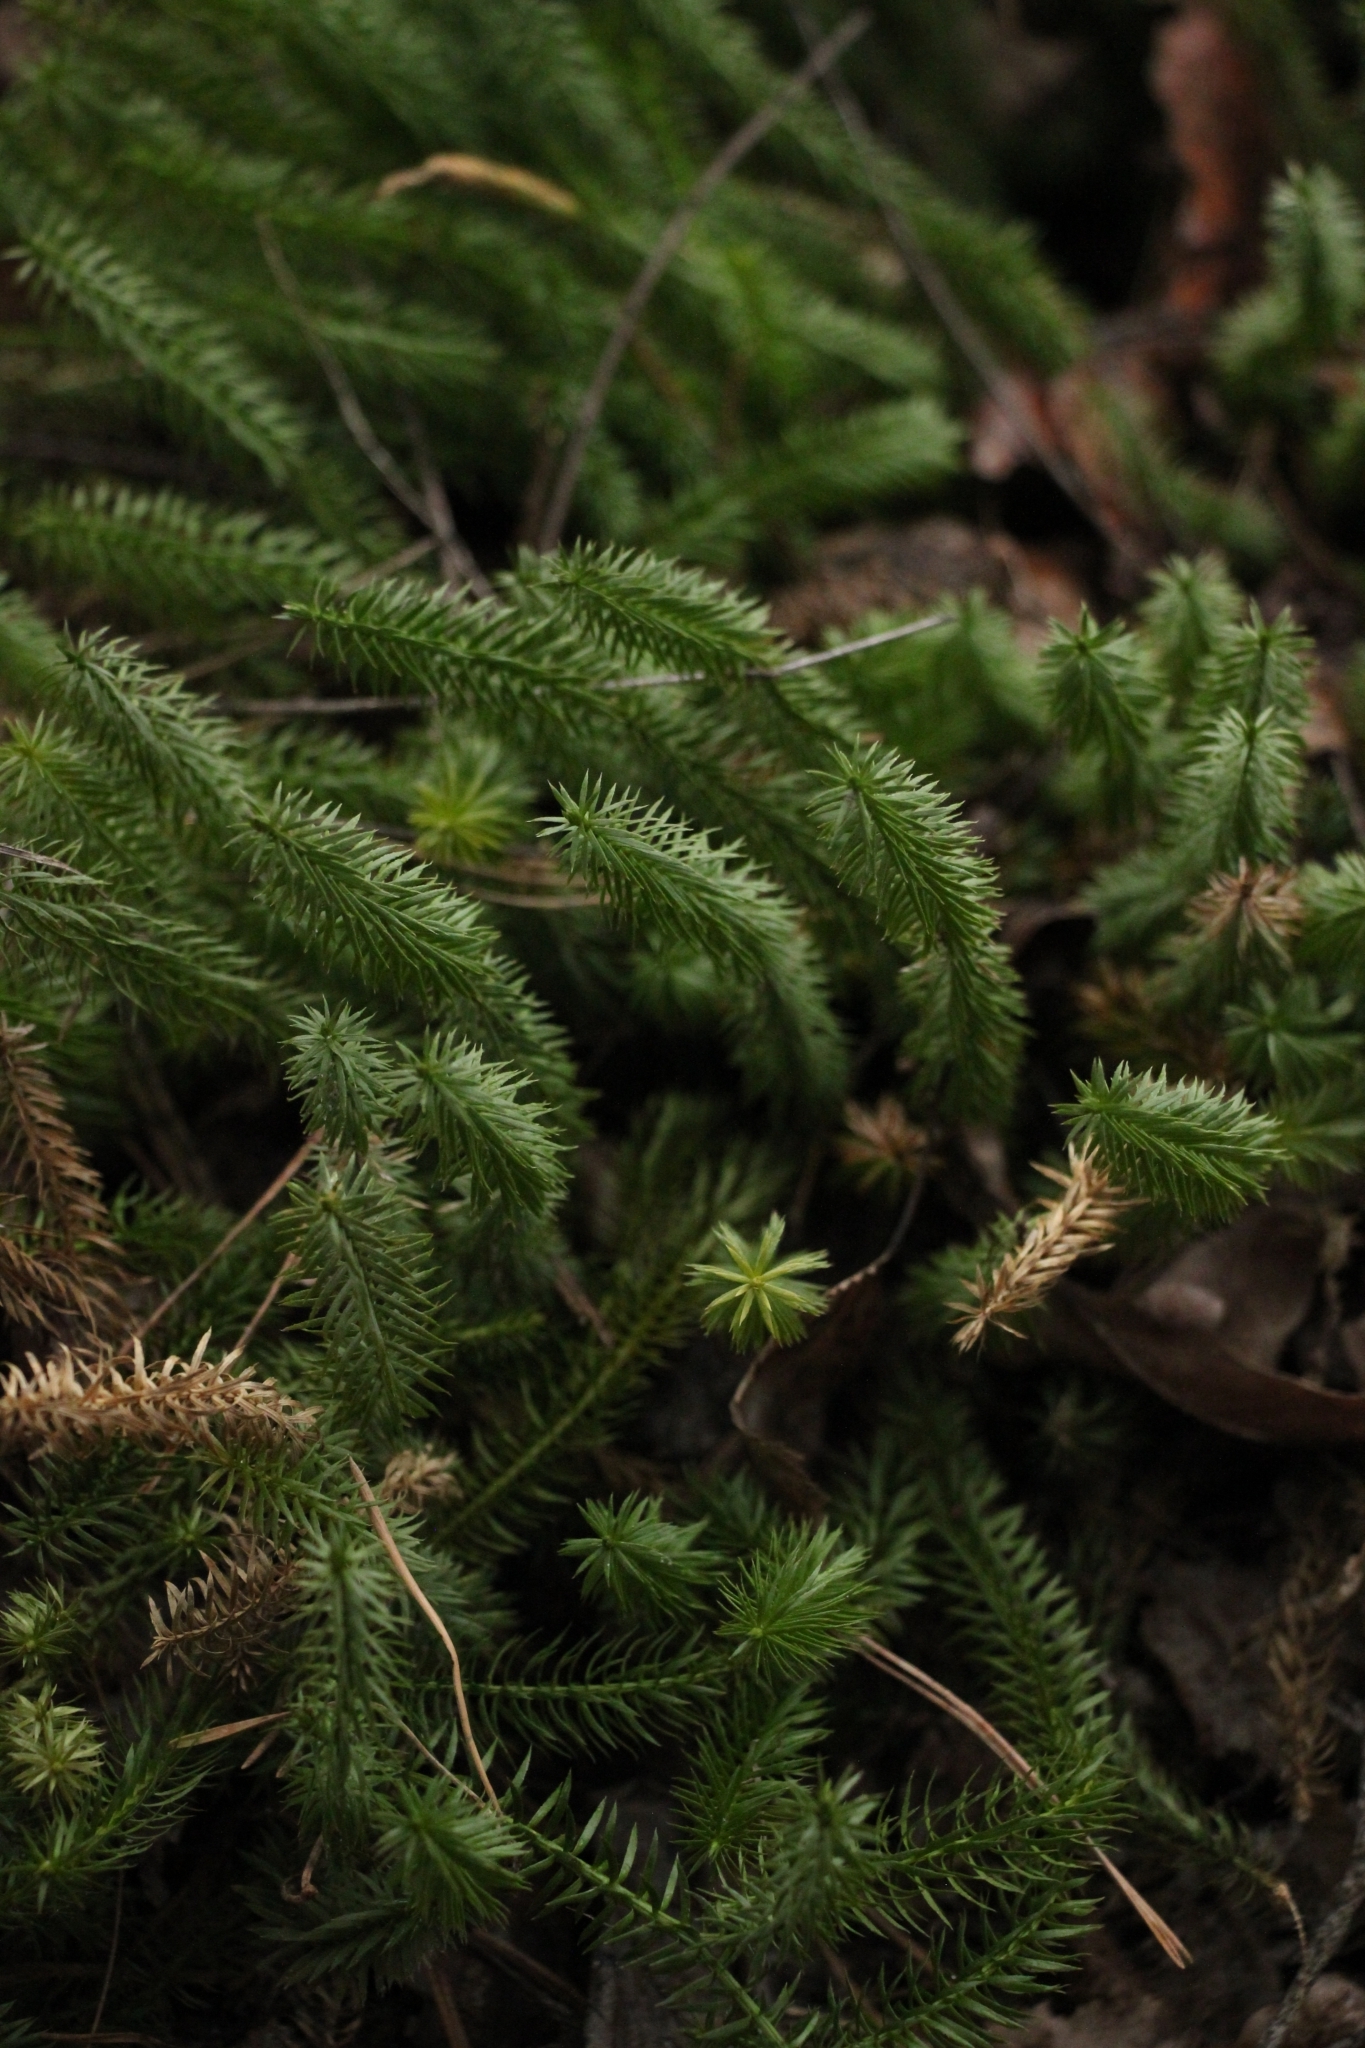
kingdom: Plantae
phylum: Tracheophyta
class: Lycopodiopsida
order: Lycopodiales
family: Lycopodiaceae
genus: Spinulum
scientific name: Spinulum annotinum
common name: Interrupted club-moss
